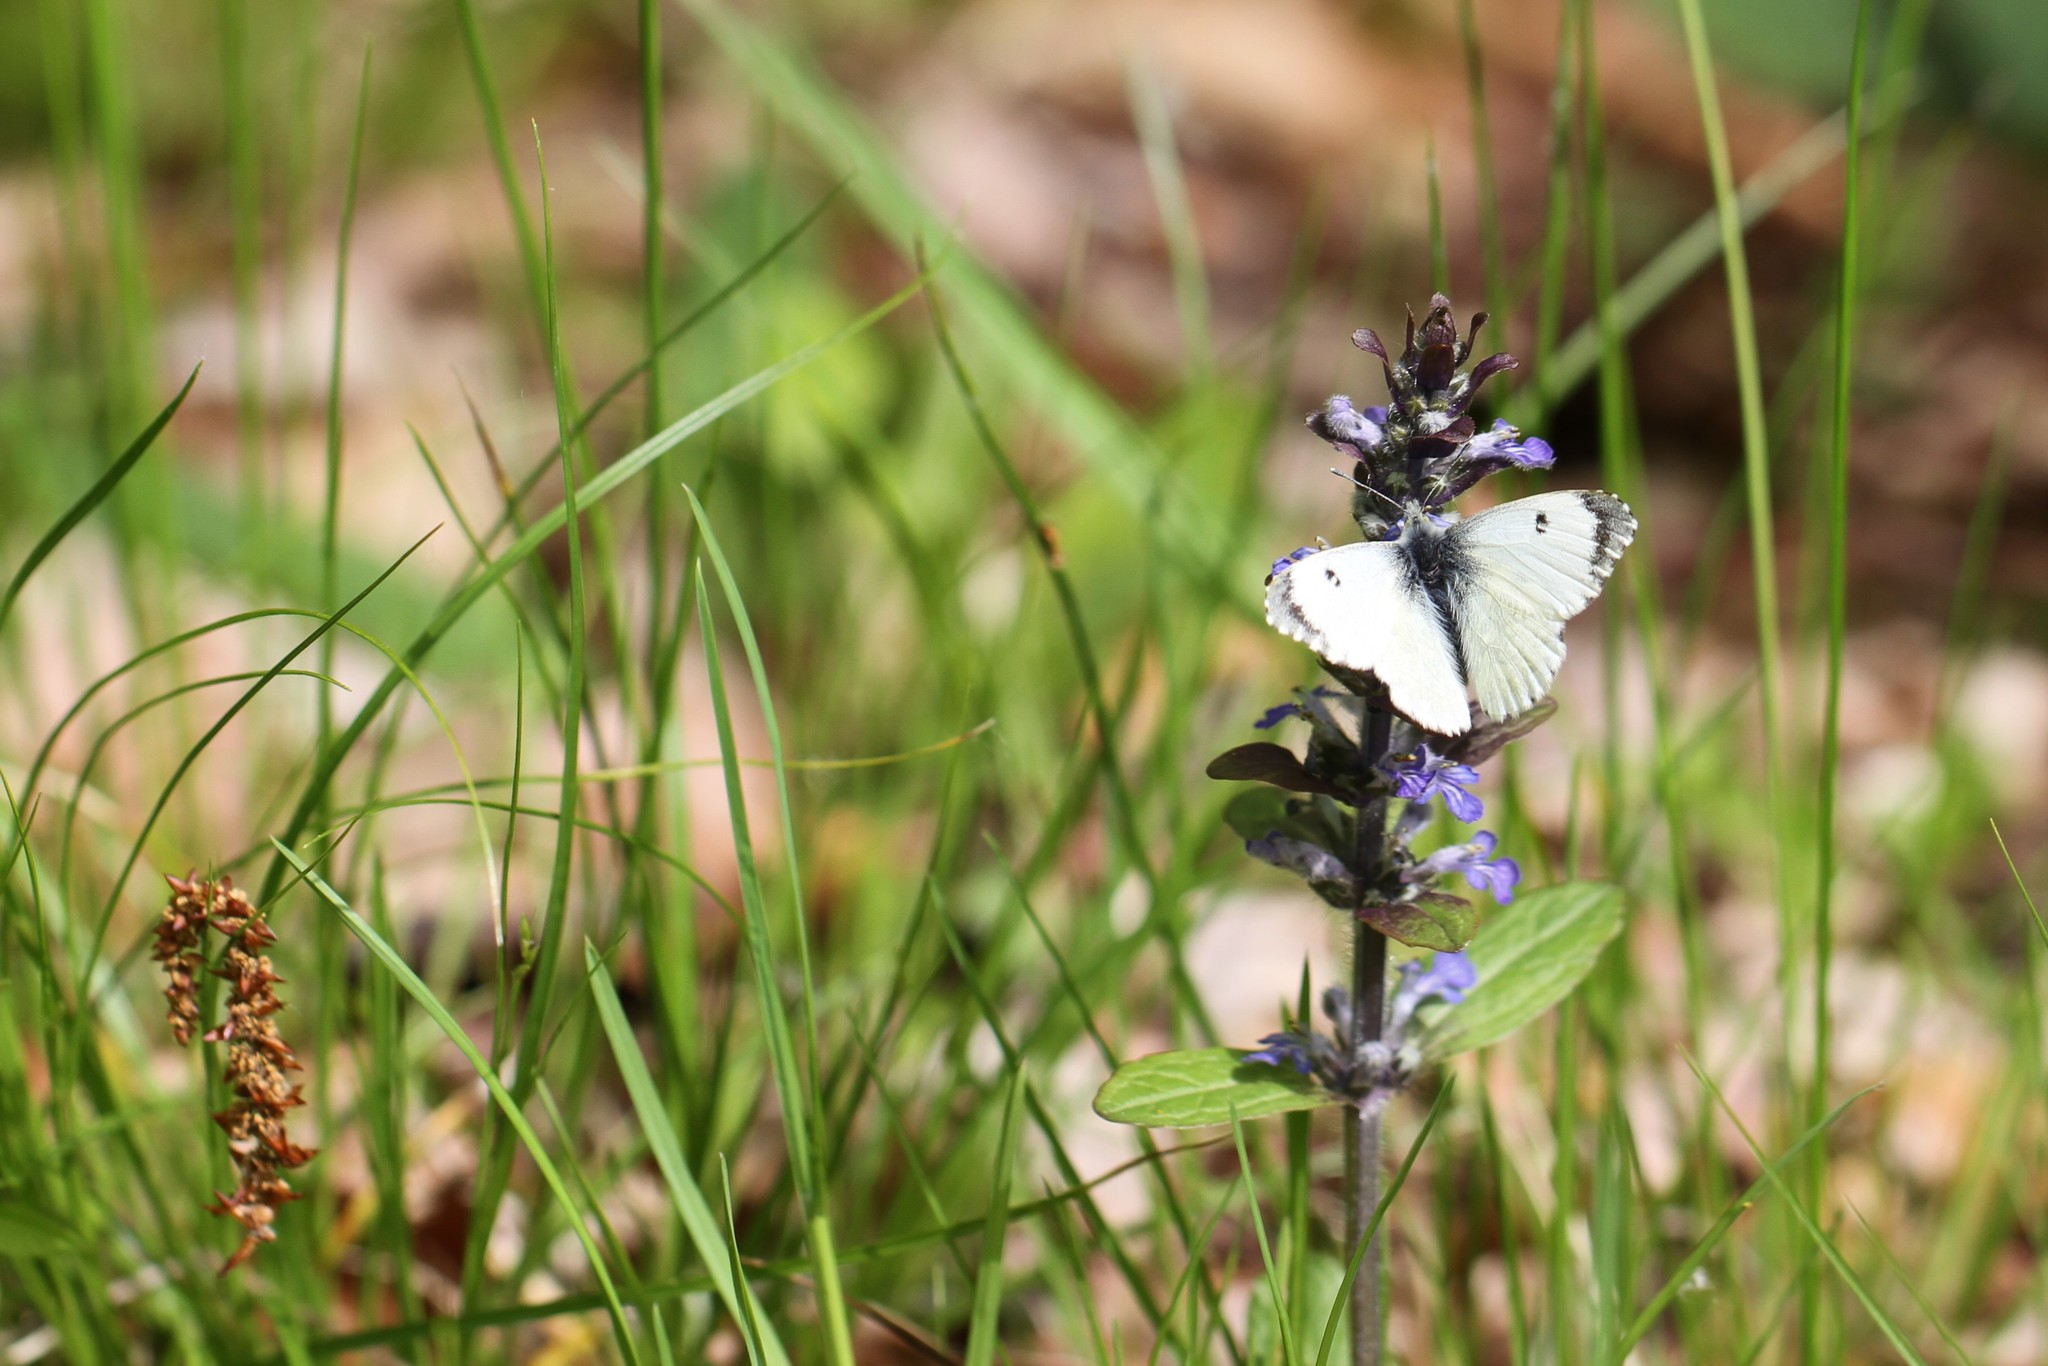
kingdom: Animalia
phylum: Arthropoda
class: Insecta
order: Lepidoptera
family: Pieridae
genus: Anthocharis
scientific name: Anthocharis cardamines
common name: Orange-tip
